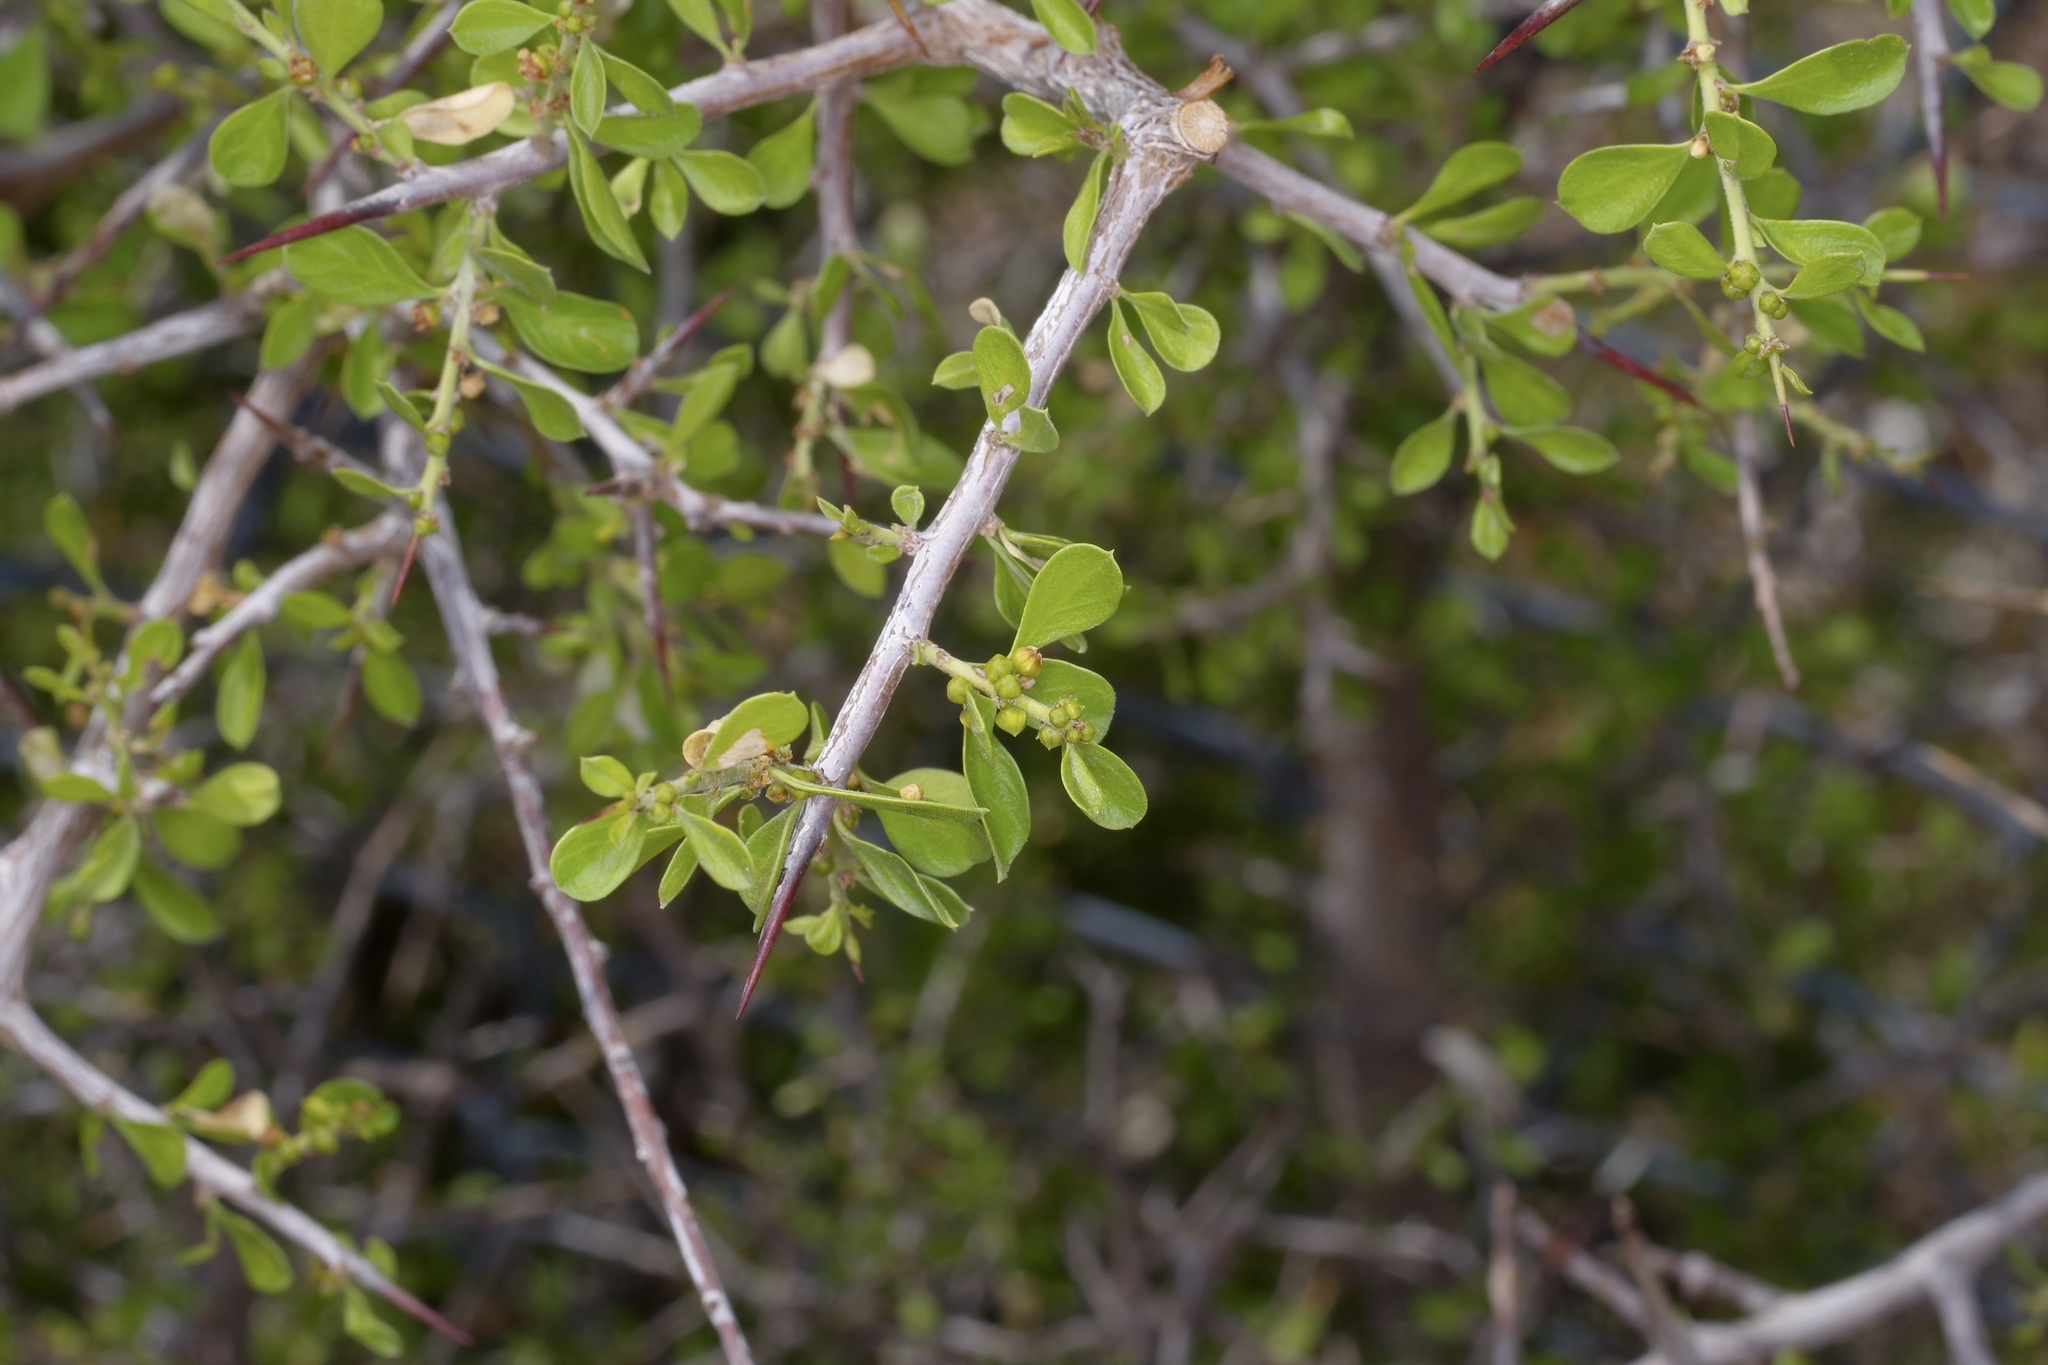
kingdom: Plantae
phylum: Tracheophyta
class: Magnoliopsida
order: Rosales
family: Rhamnaceae
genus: Condalia
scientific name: Condalia viridis
